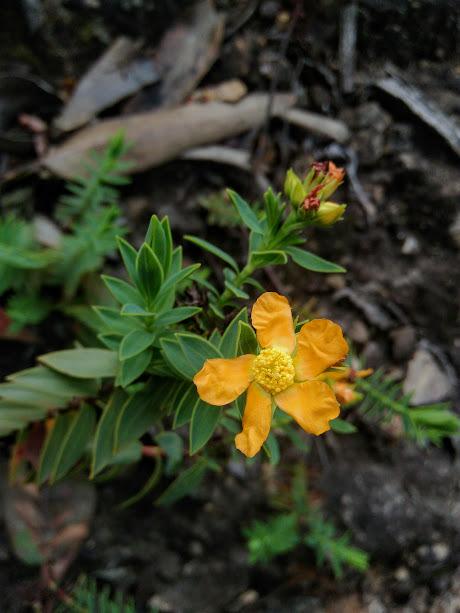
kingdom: Plantae
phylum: Tracheophyta
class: Magnoliopsida
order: Malpighiales
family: Hypericaceae
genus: Hypericum
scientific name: Hypericum ruscoides
